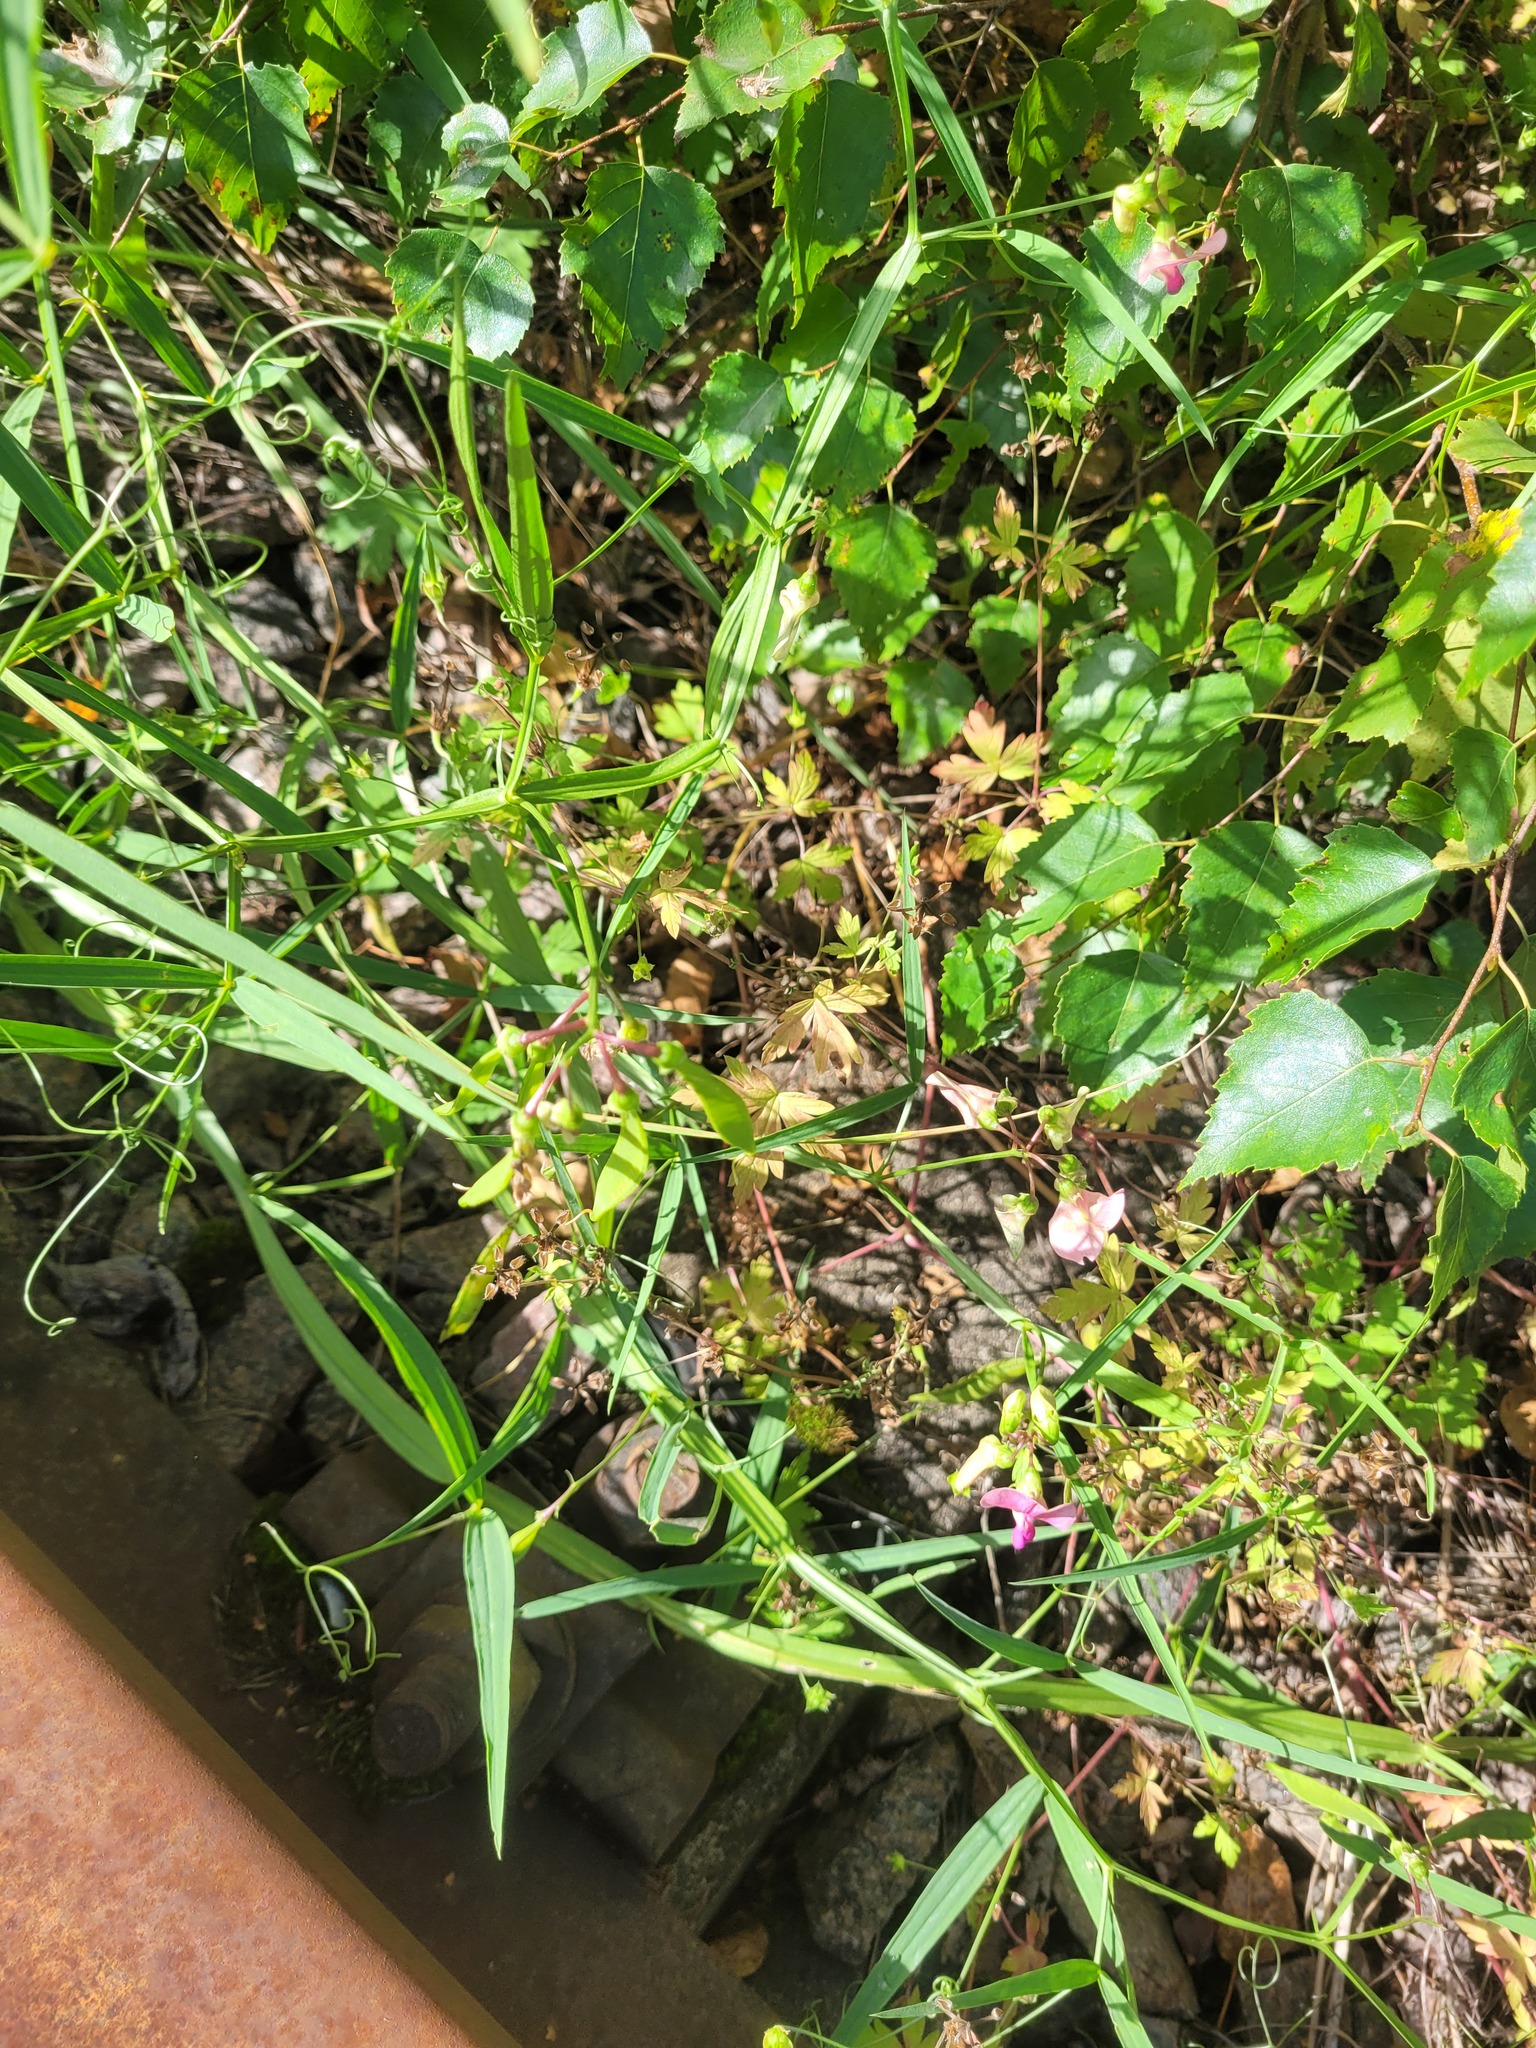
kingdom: Plantae
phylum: Tracheophyta
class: Magnoliopsida
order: Fabales
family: Fabaceae
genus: Lathyrus
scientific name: Lathyrus sylvestris
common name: Flat pea
